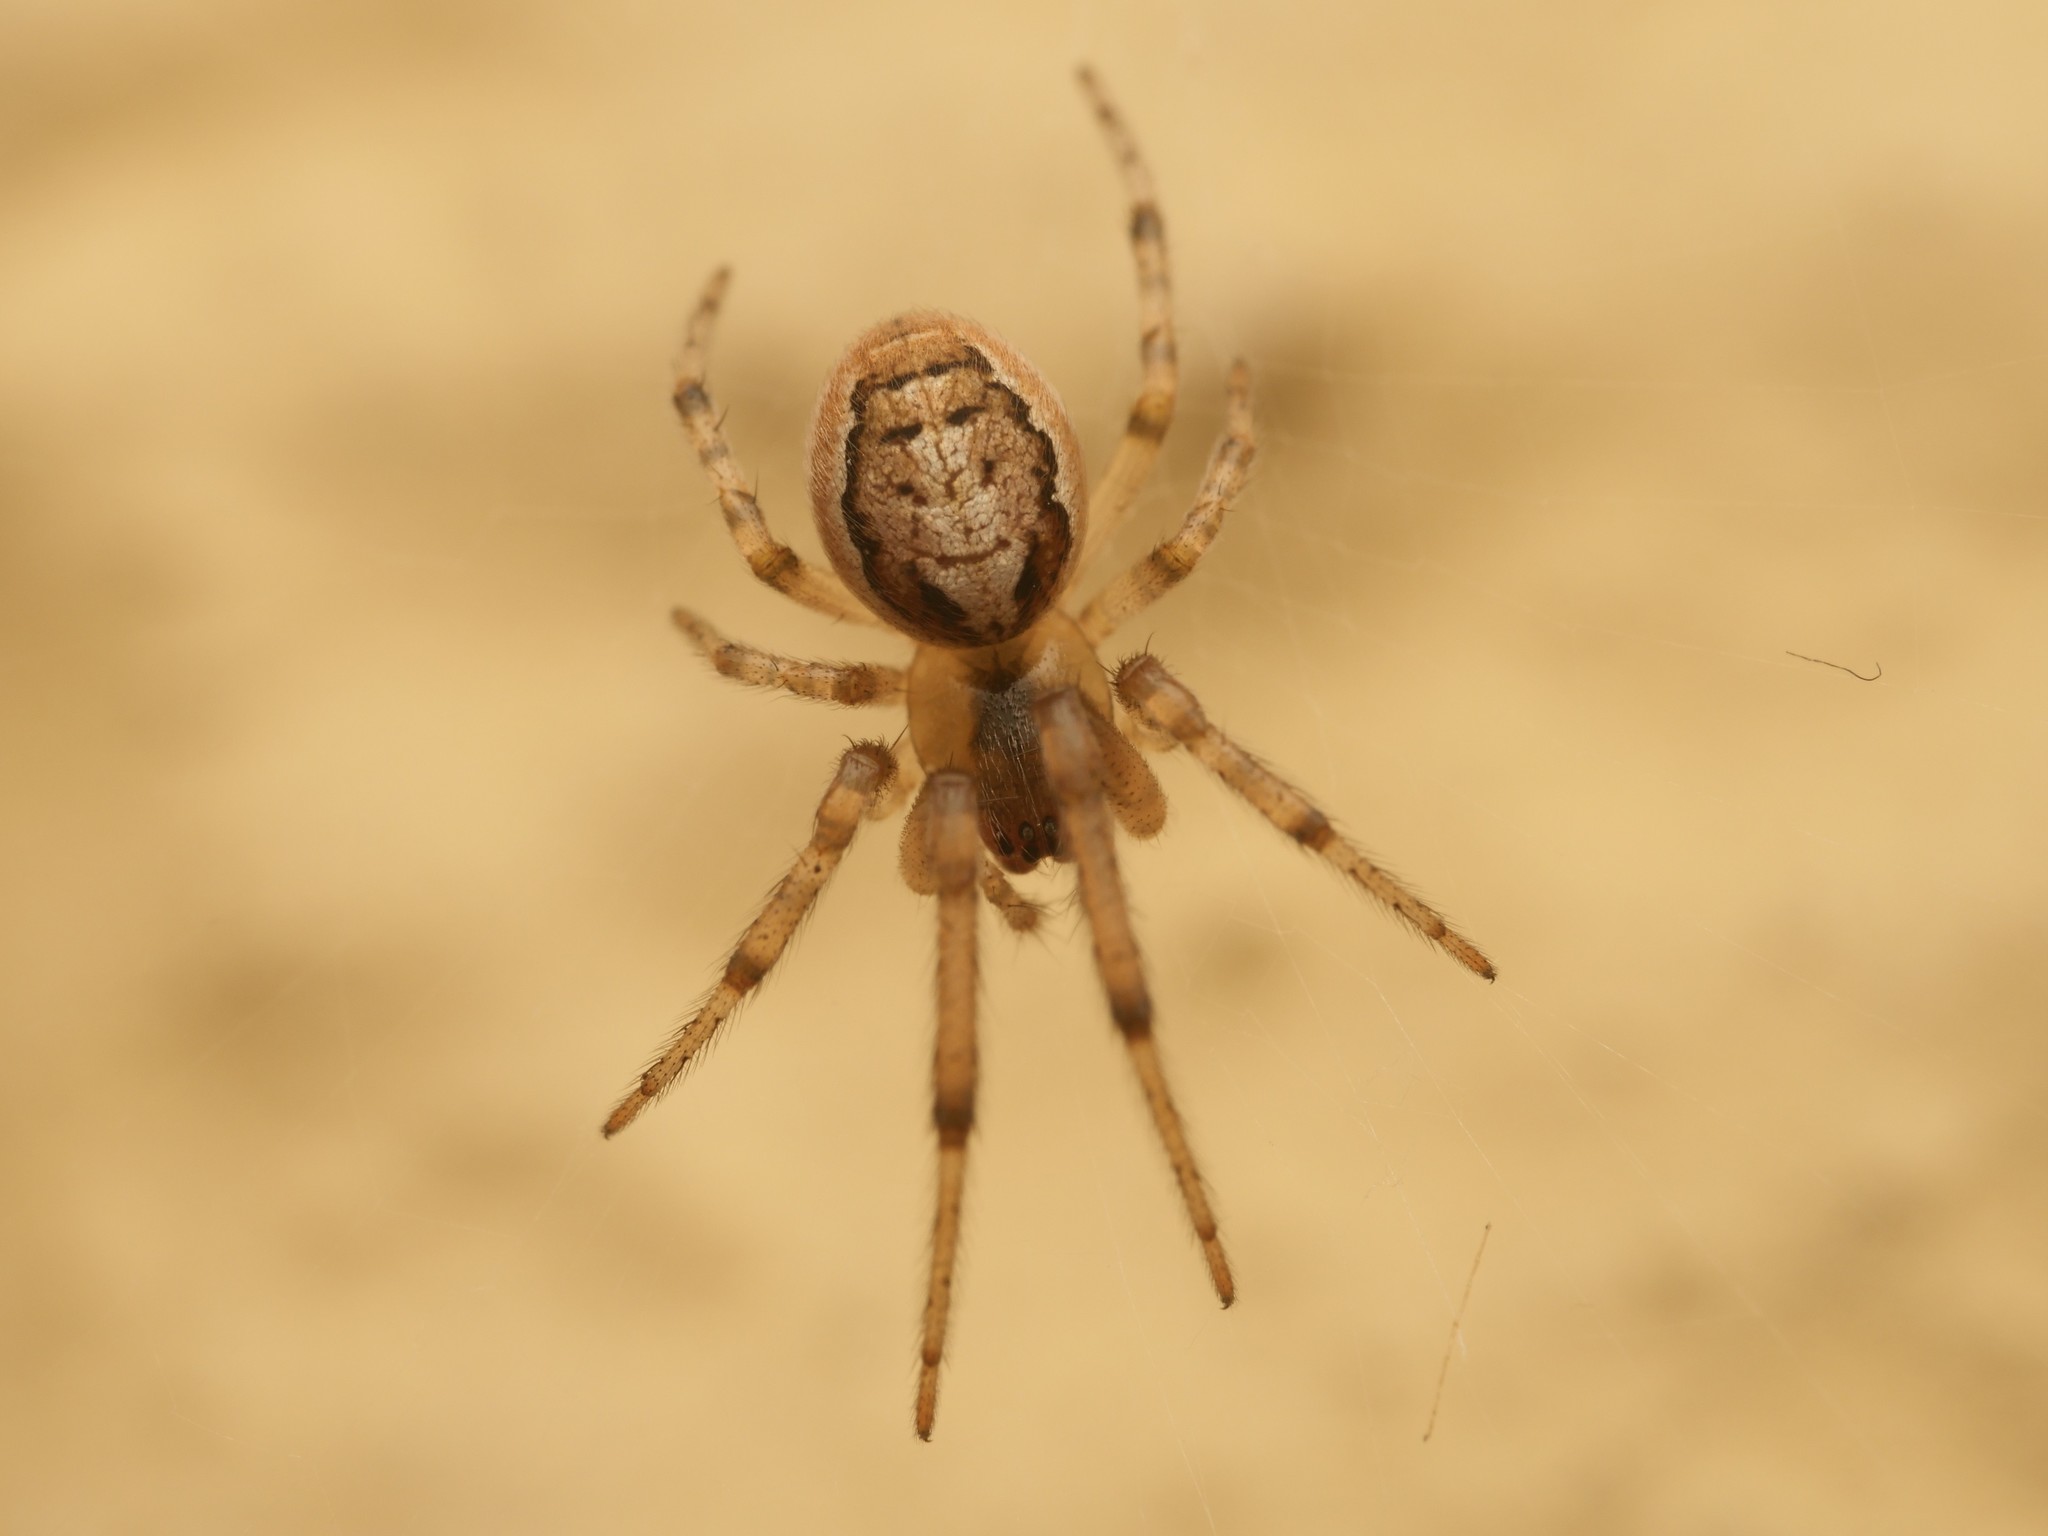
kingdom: Animalia
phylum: Arthropoda
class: Arachnida
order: Araneae
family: Araneidae
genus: Zygiella
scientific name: Zygiella x-notata
